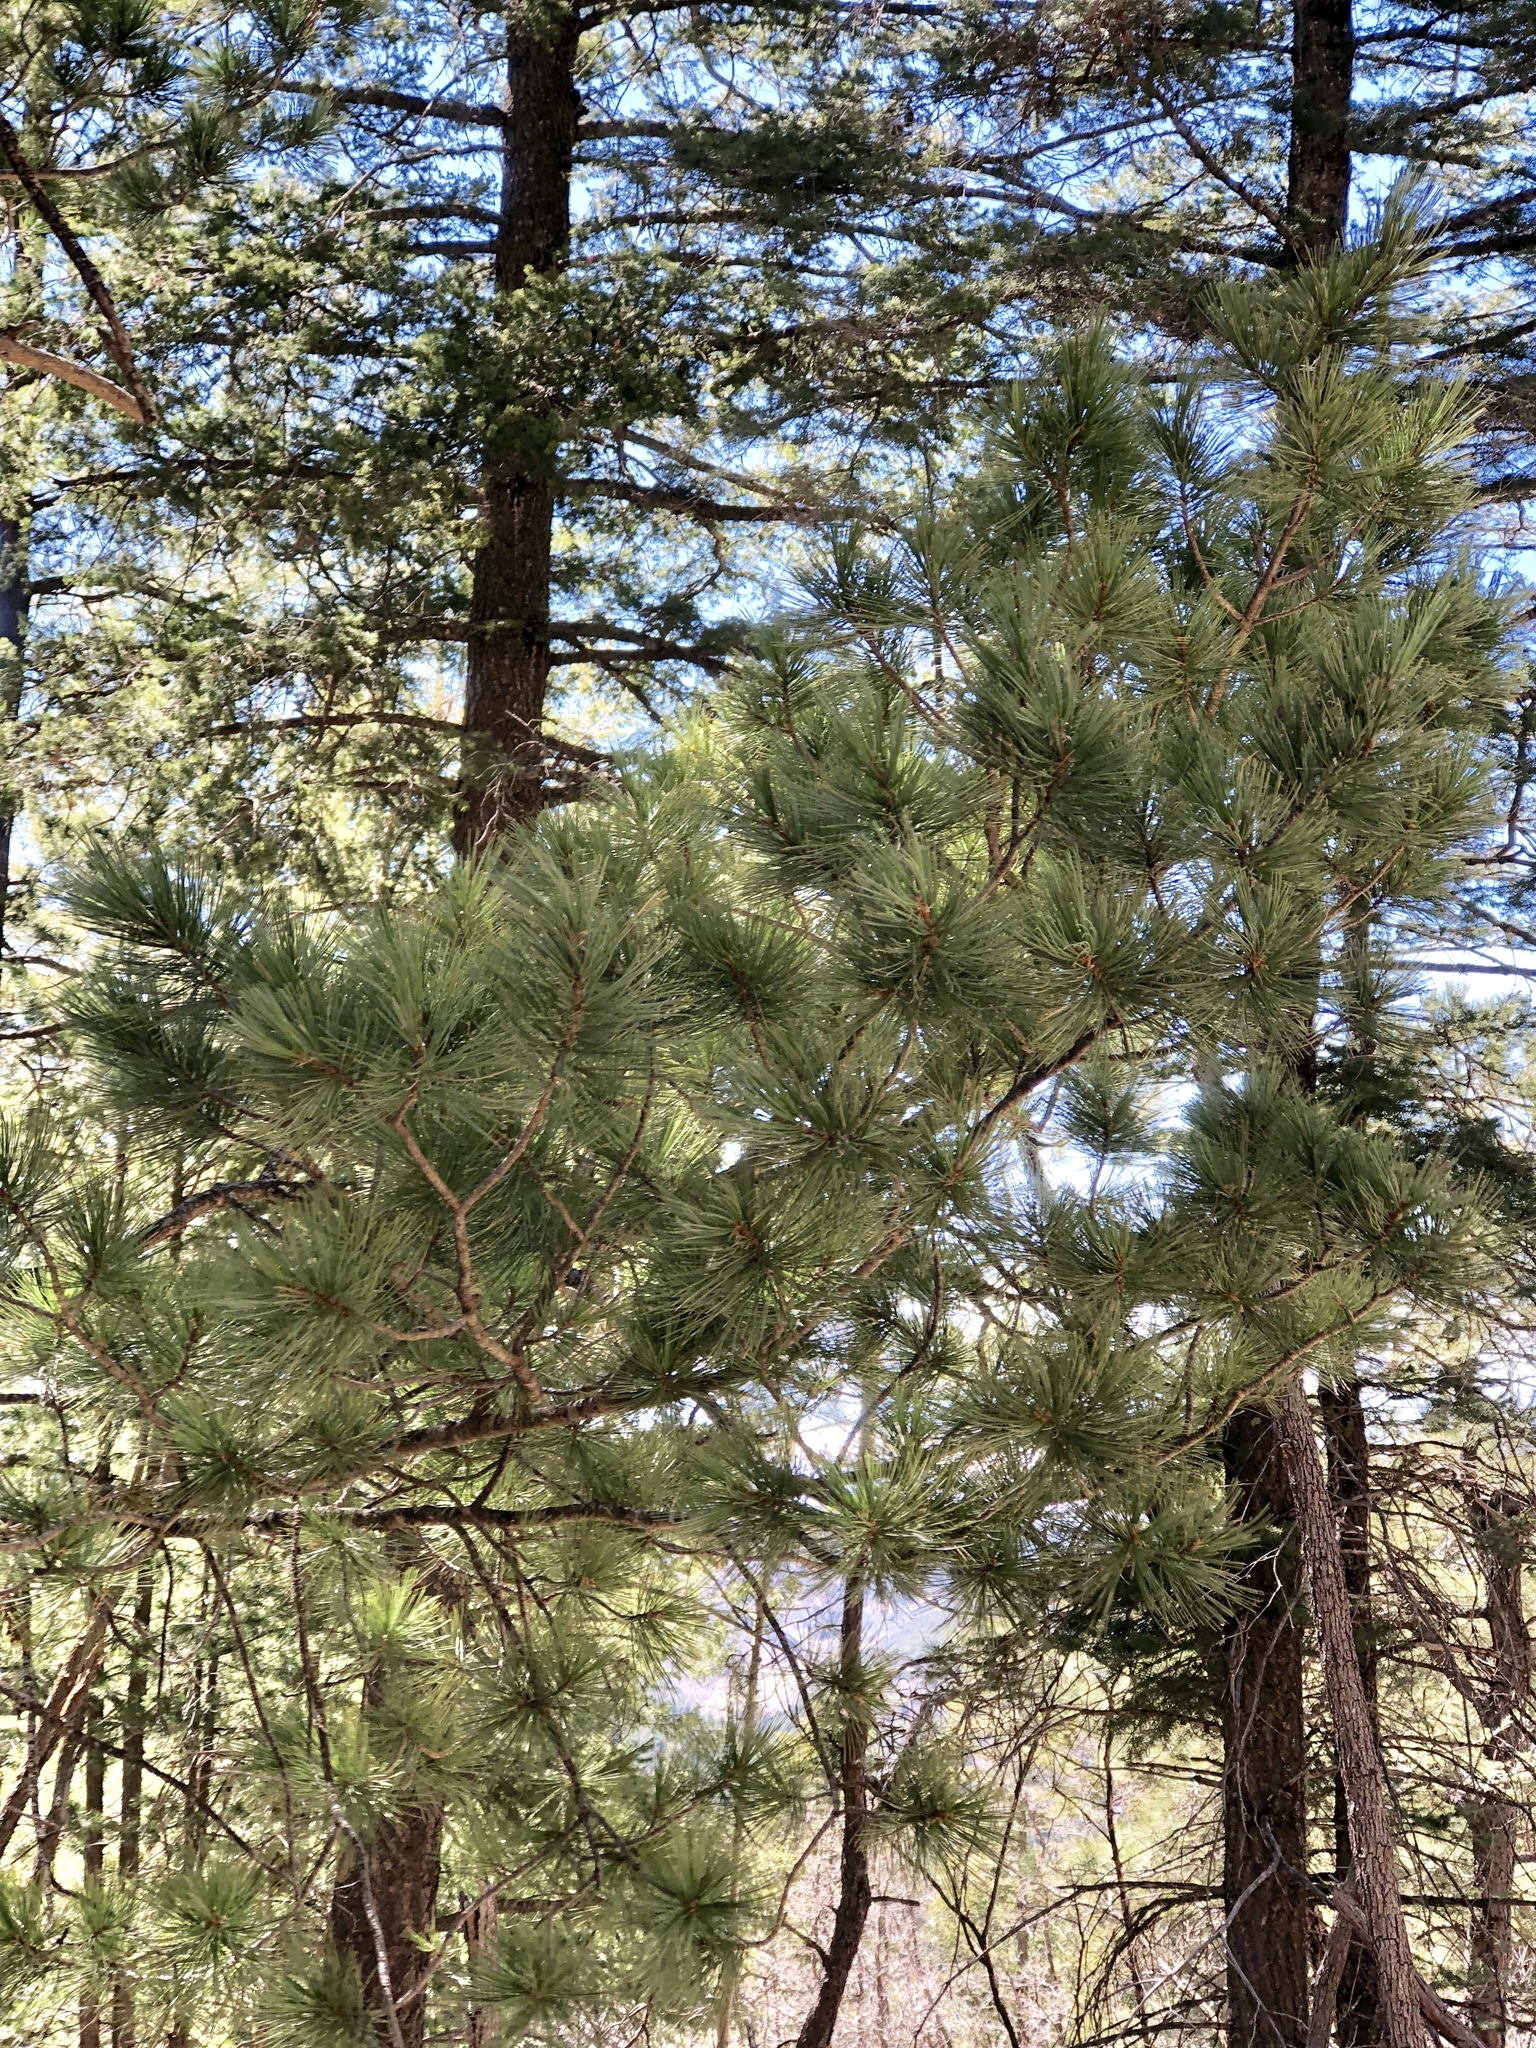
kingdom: Plantae
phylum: Tracheophyta
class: Pinopsida
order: Pinales
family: Pinaceae
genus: Pinus
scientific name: Pinus strobiformis
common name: Southwestern white pine
